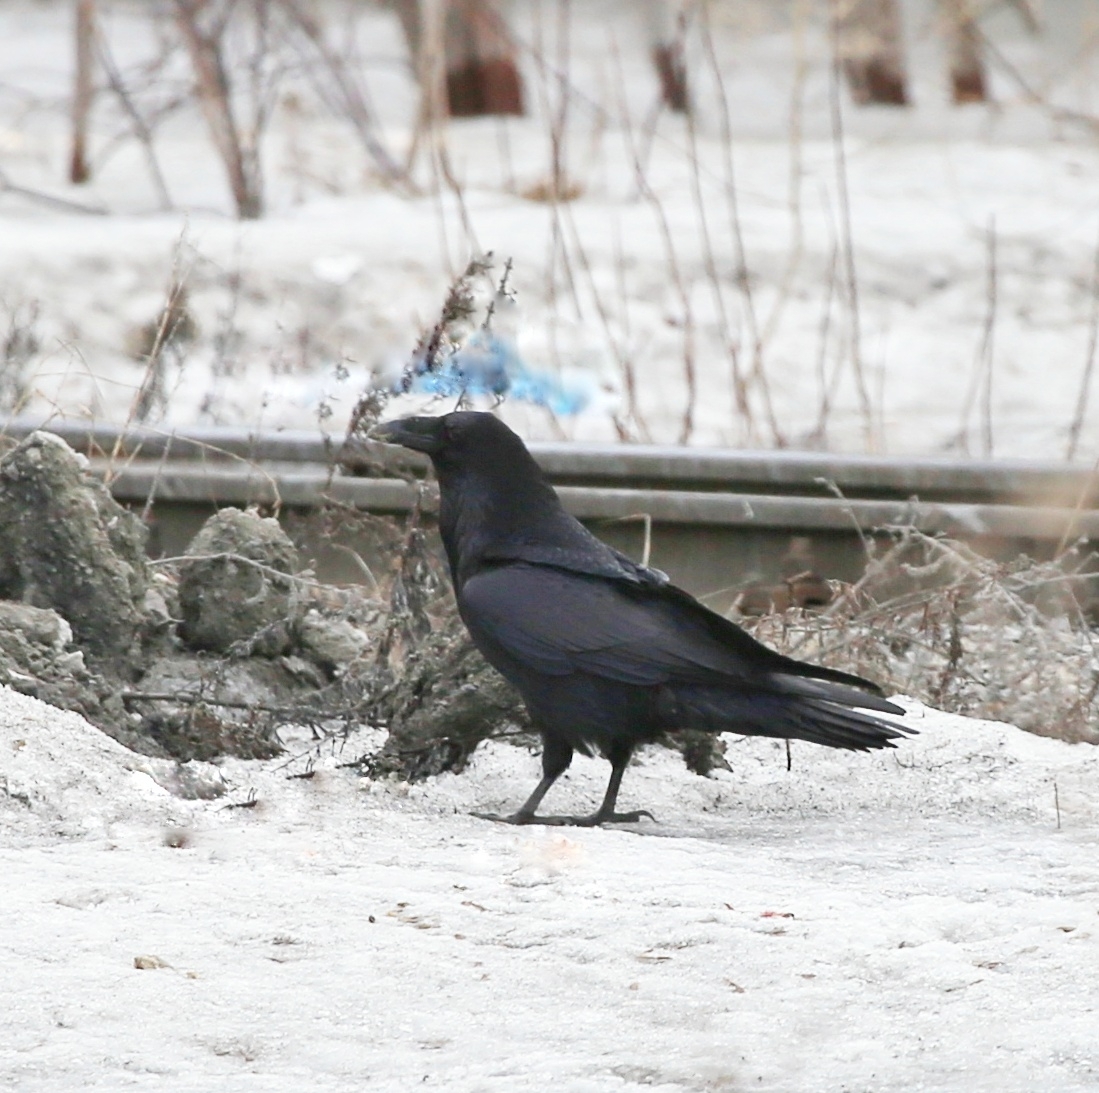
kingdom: Animalia
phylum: Chordata
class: Aves
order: Passeriformes
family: Corvidae
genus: Corvus
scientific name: Corvus corax
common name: Common raven
